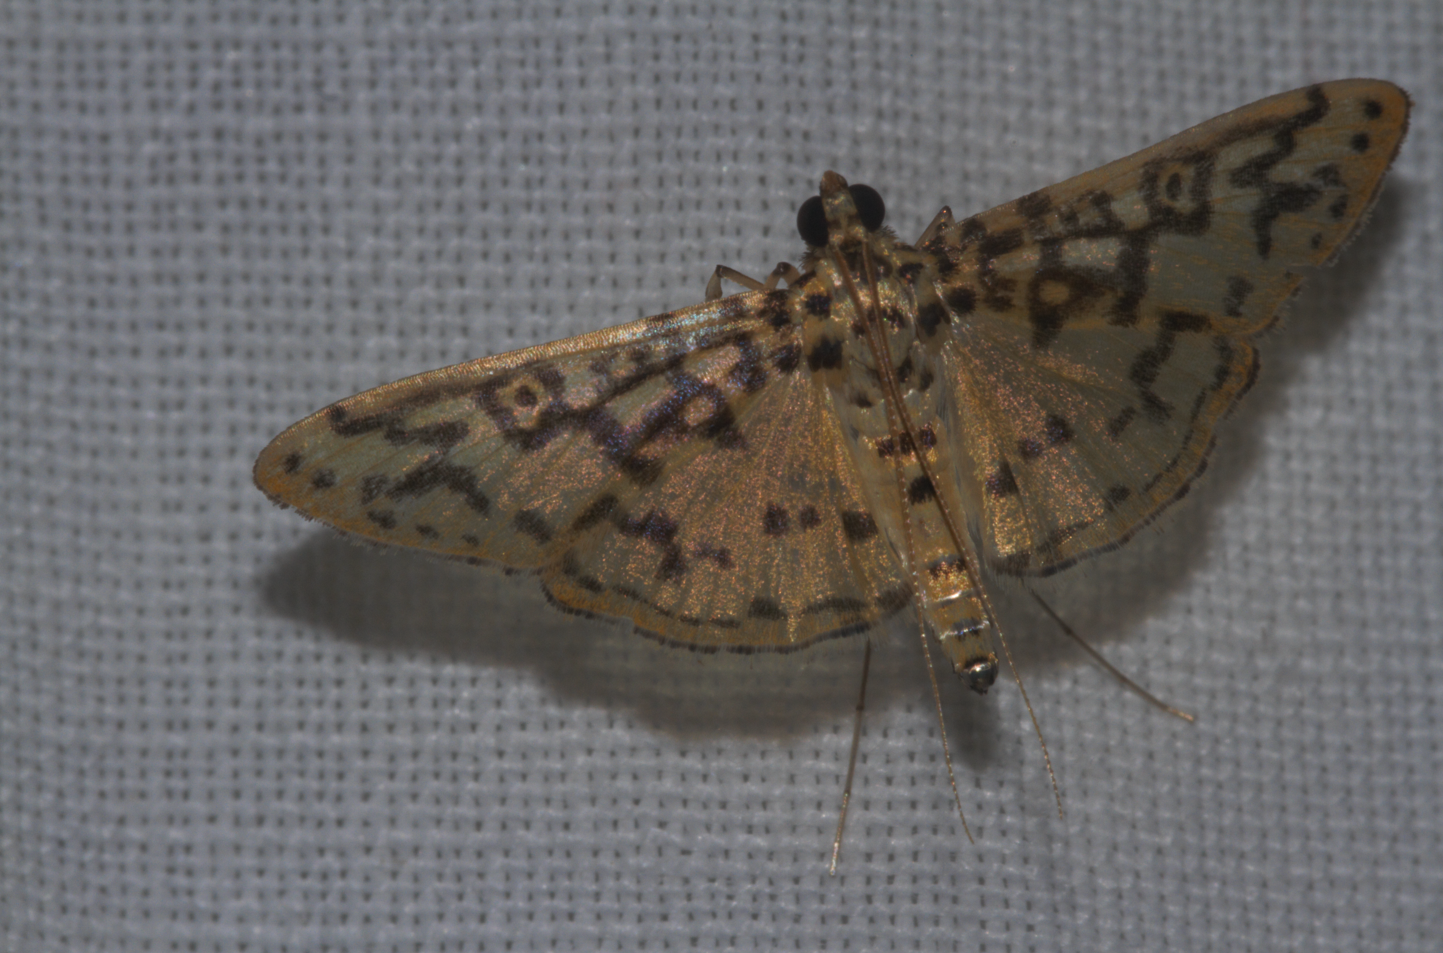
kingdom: Animalia
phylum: Arthropoda
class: Insecta
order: Lepidoptera
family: Crambidae
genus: Asturodes
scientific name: Asturodes bioalfae
